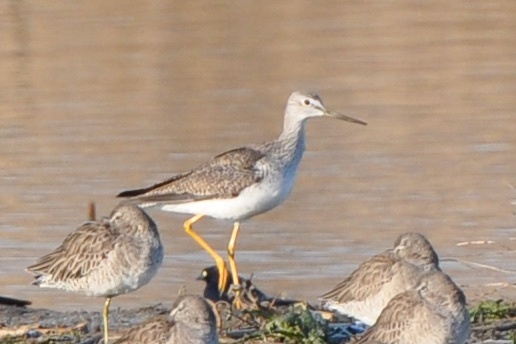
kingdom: Animalia
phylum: Chordata
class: Aves
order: Charadriiformes
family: Scolopacidae
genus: Tringa
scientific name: Tringa melanoleuca
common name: Greater yellowlegs
